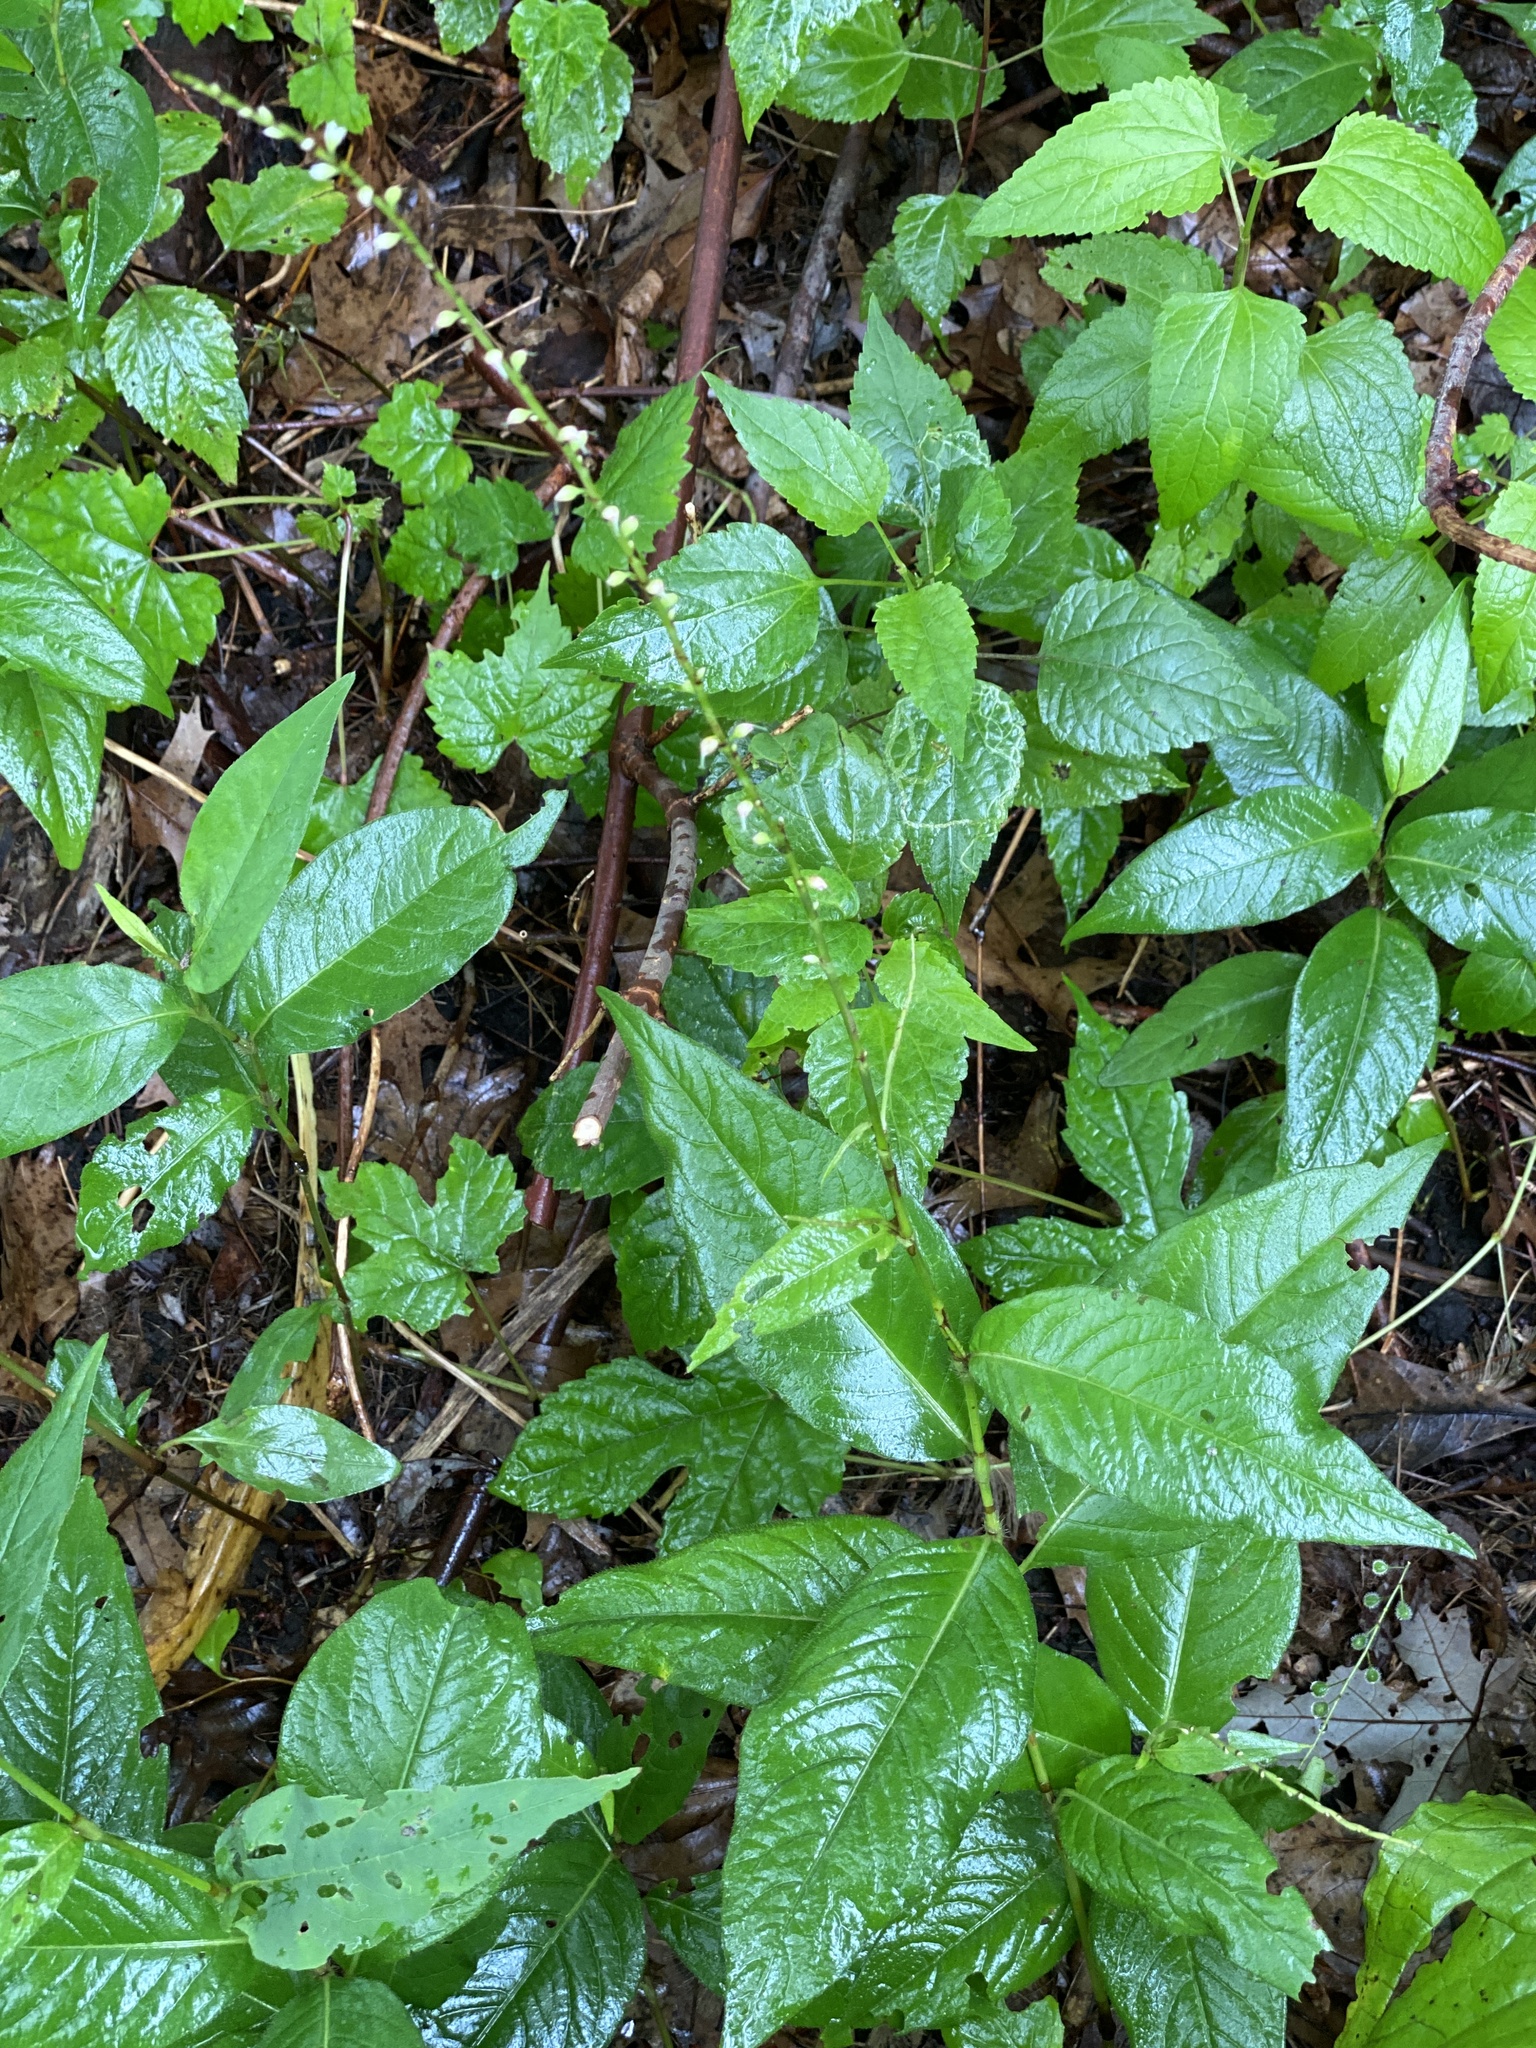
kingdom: Plantae
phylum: Tracheophyta
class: Magnoliopsida
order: Caryophyllales
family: Polygonaceae
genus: Persicaria
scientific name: Persicaria virginiana
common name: Jumpseed
